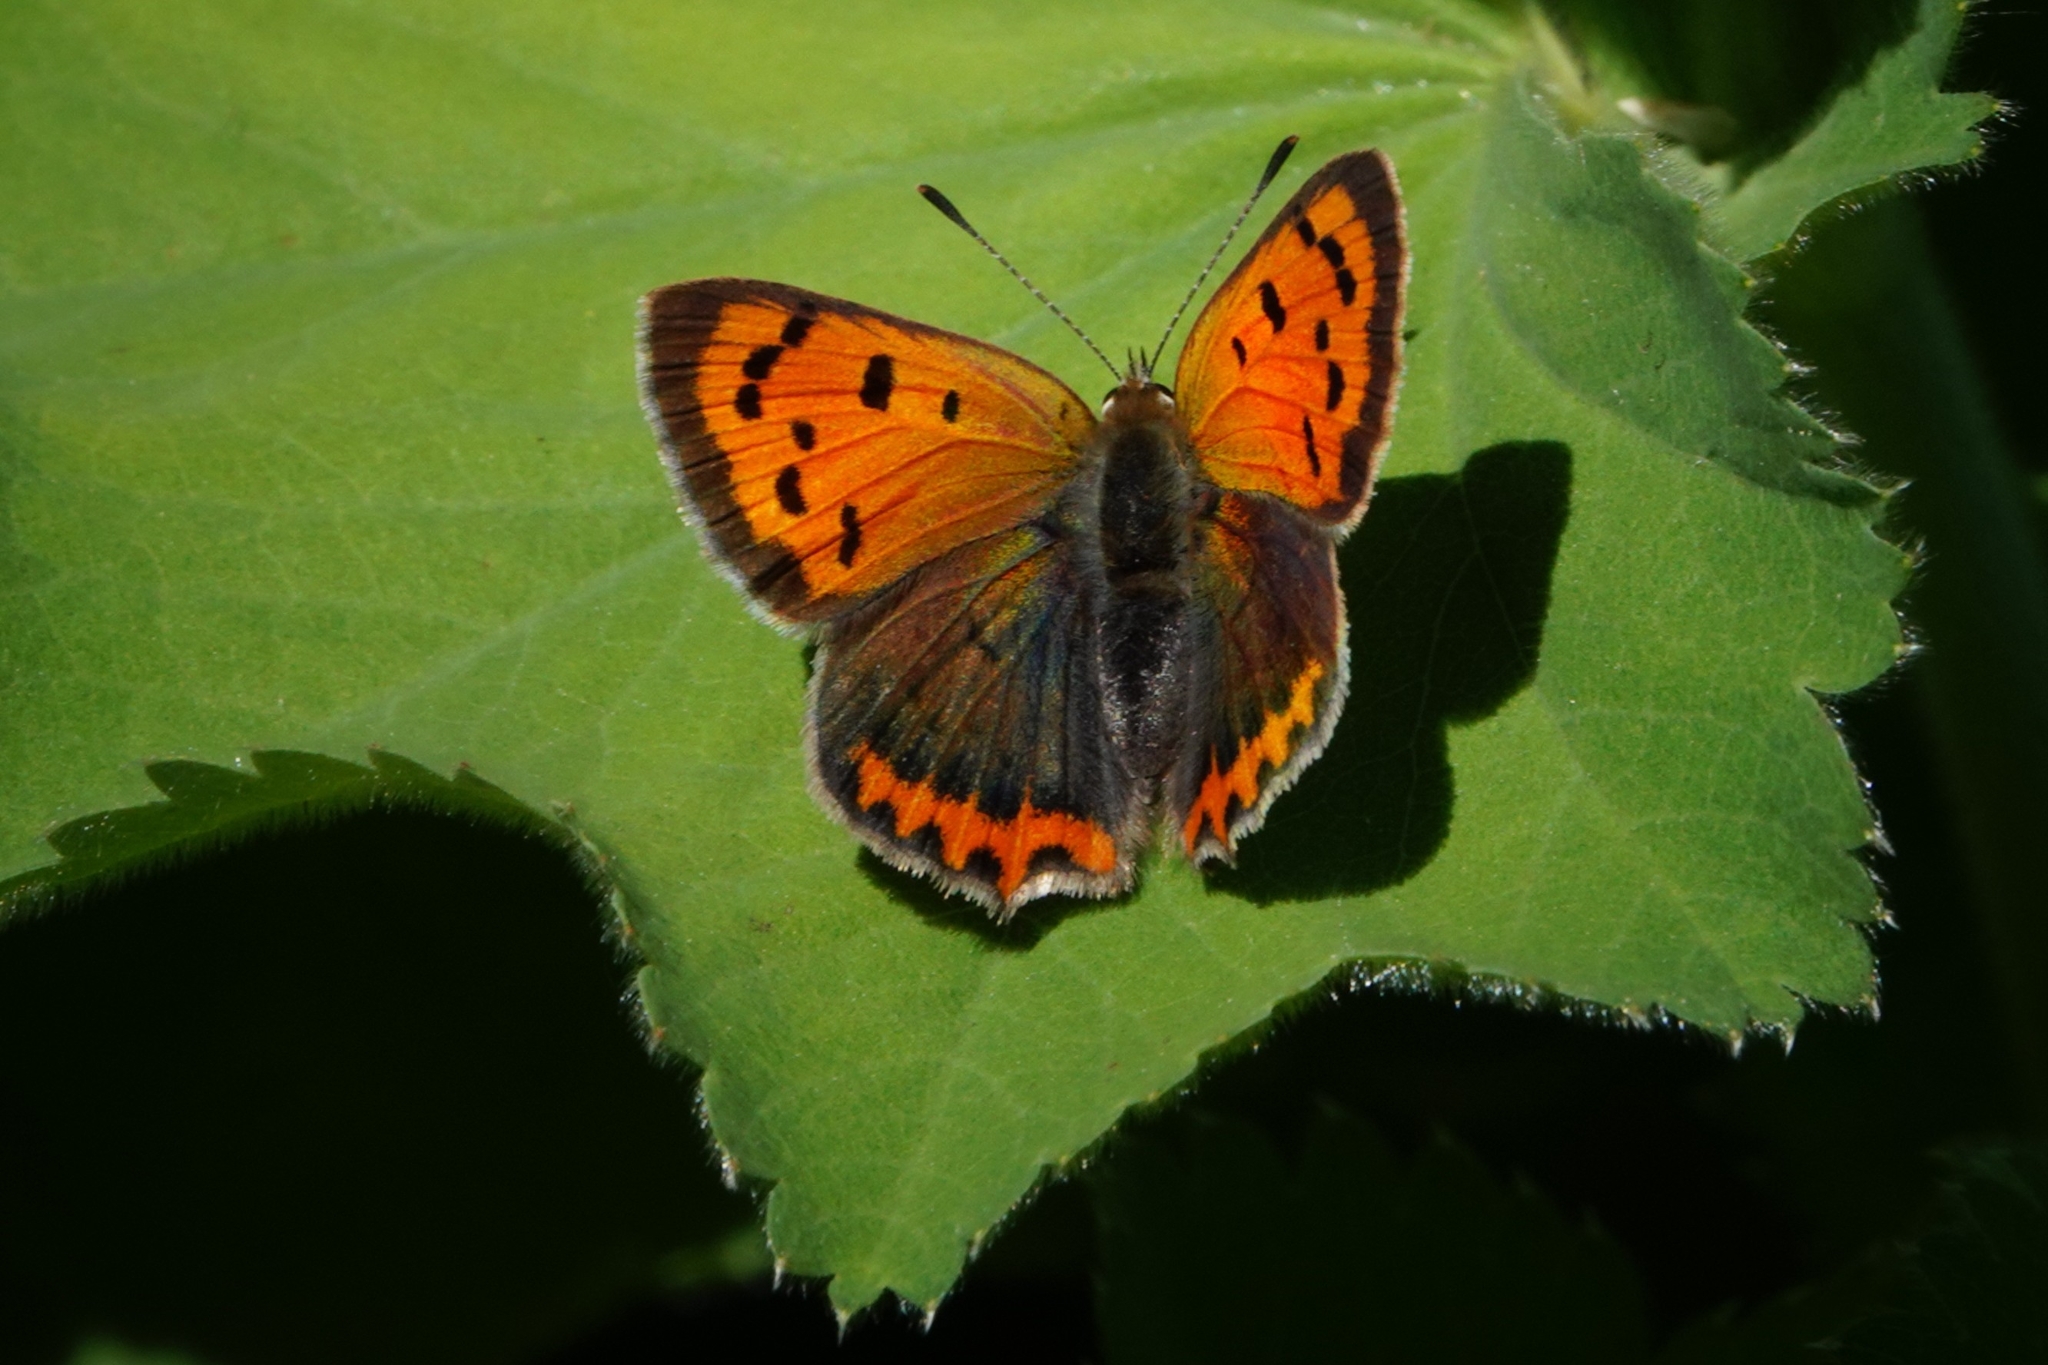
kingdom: Animalia
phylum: Arthropoda
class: Insecta
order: Lepidoptera
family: Lycaenidae
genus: Lycaena
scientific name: Lycaena phlaeas
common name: Small copper
